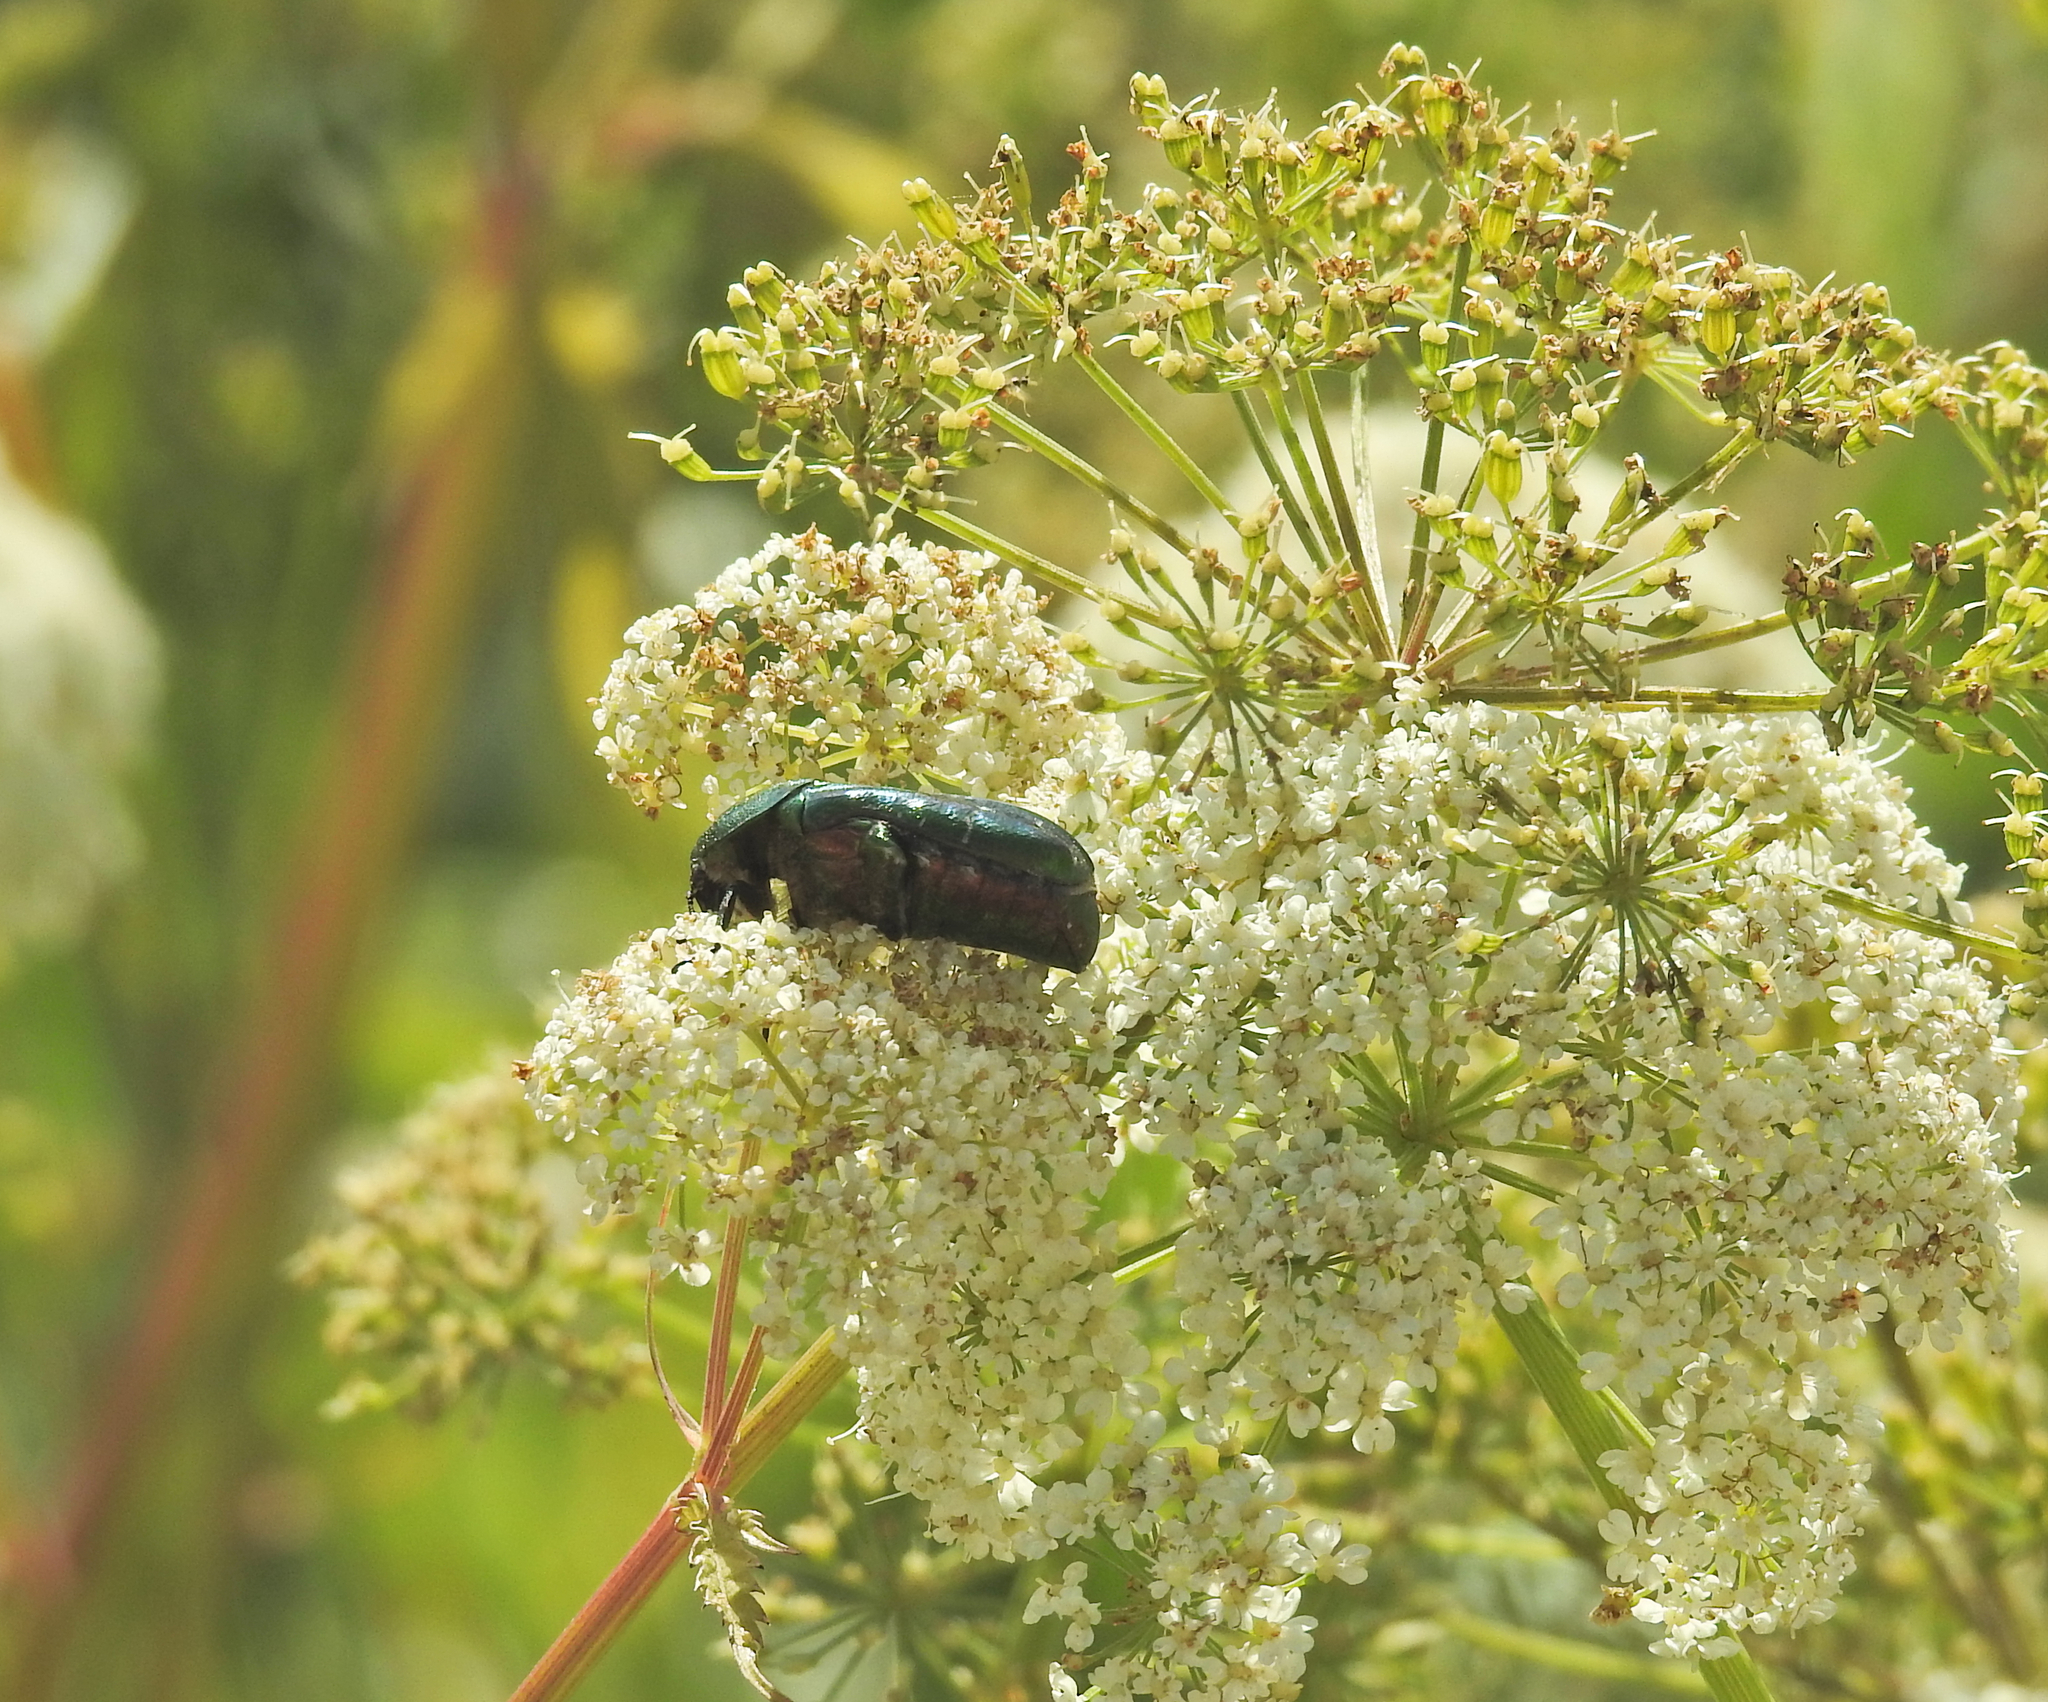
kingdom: Animalia
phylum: Arthropoda
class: Insecta
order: Coleoptera
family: Scarabaeidae
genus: Cetonia
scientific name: Cetonia aurata
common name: Rose chafer
